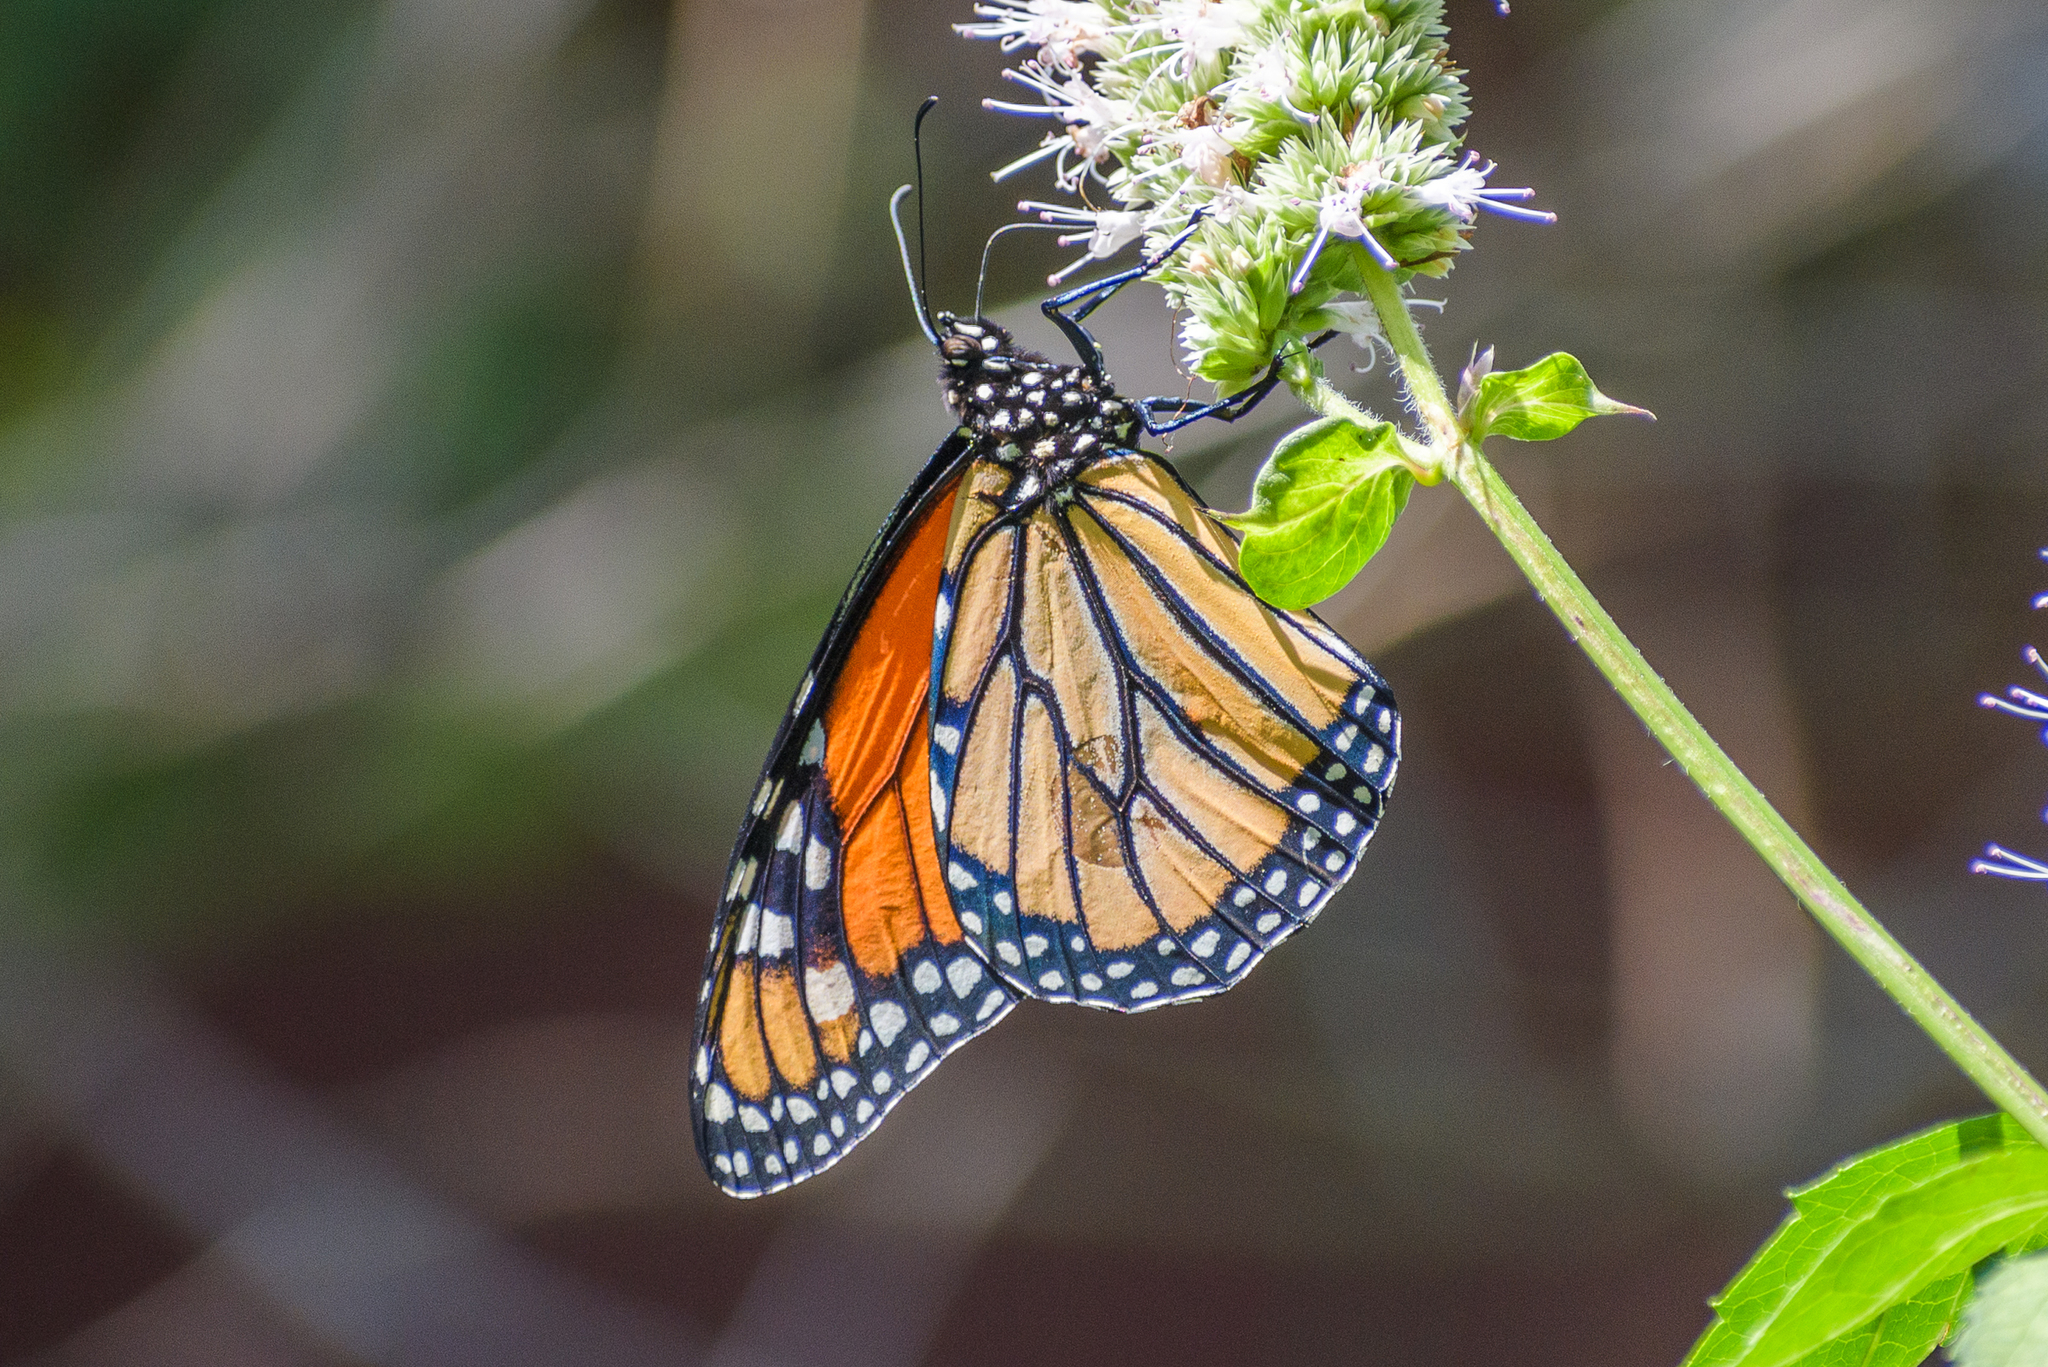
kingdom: Animalia
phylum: Arthropoda
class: Insecta
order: Lepidoptera
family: Nymphalidae
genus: Danaus
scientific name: Danaus plexippus
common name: Monarch
